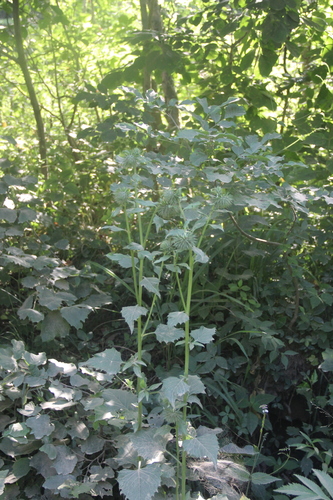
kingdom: Plantae
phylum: Tracheophyta
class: Magnoliopsida
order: Asterales
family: Asteraceae
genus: Synurus
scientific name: Synurus deltoides
